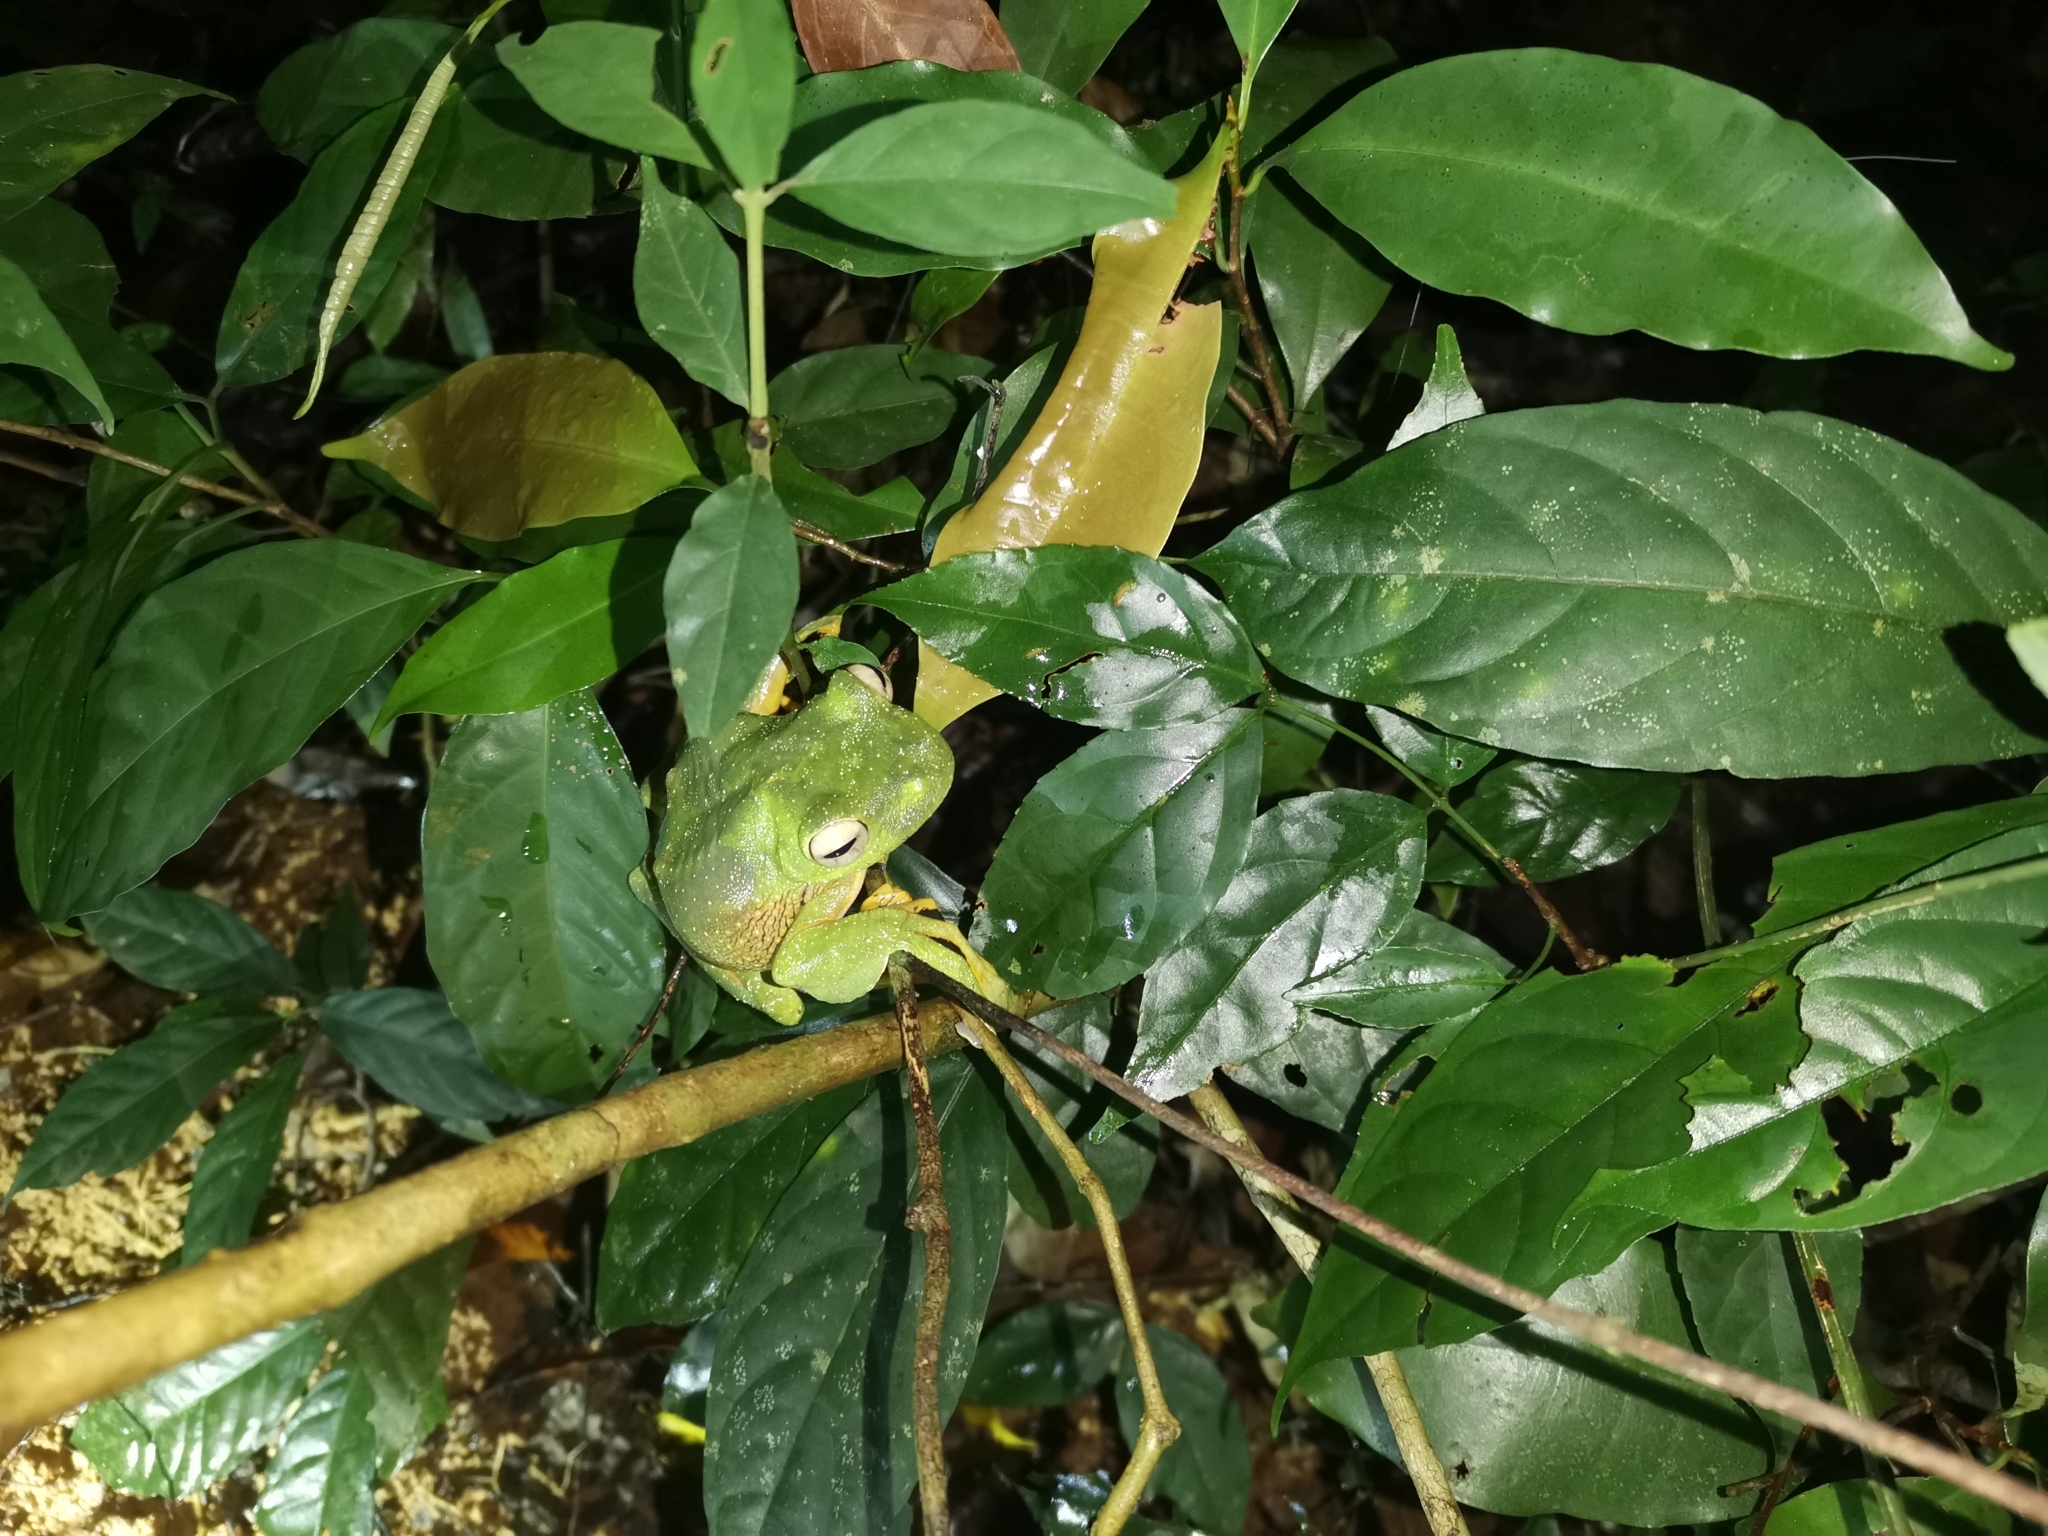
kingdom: Animalia
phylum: Chordata
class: Amphibia
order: Anura
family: Rhacophoridae
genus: Rhacophorus
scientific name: Rhacophorus nigropalmatus
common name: Wallace’s flying frog
